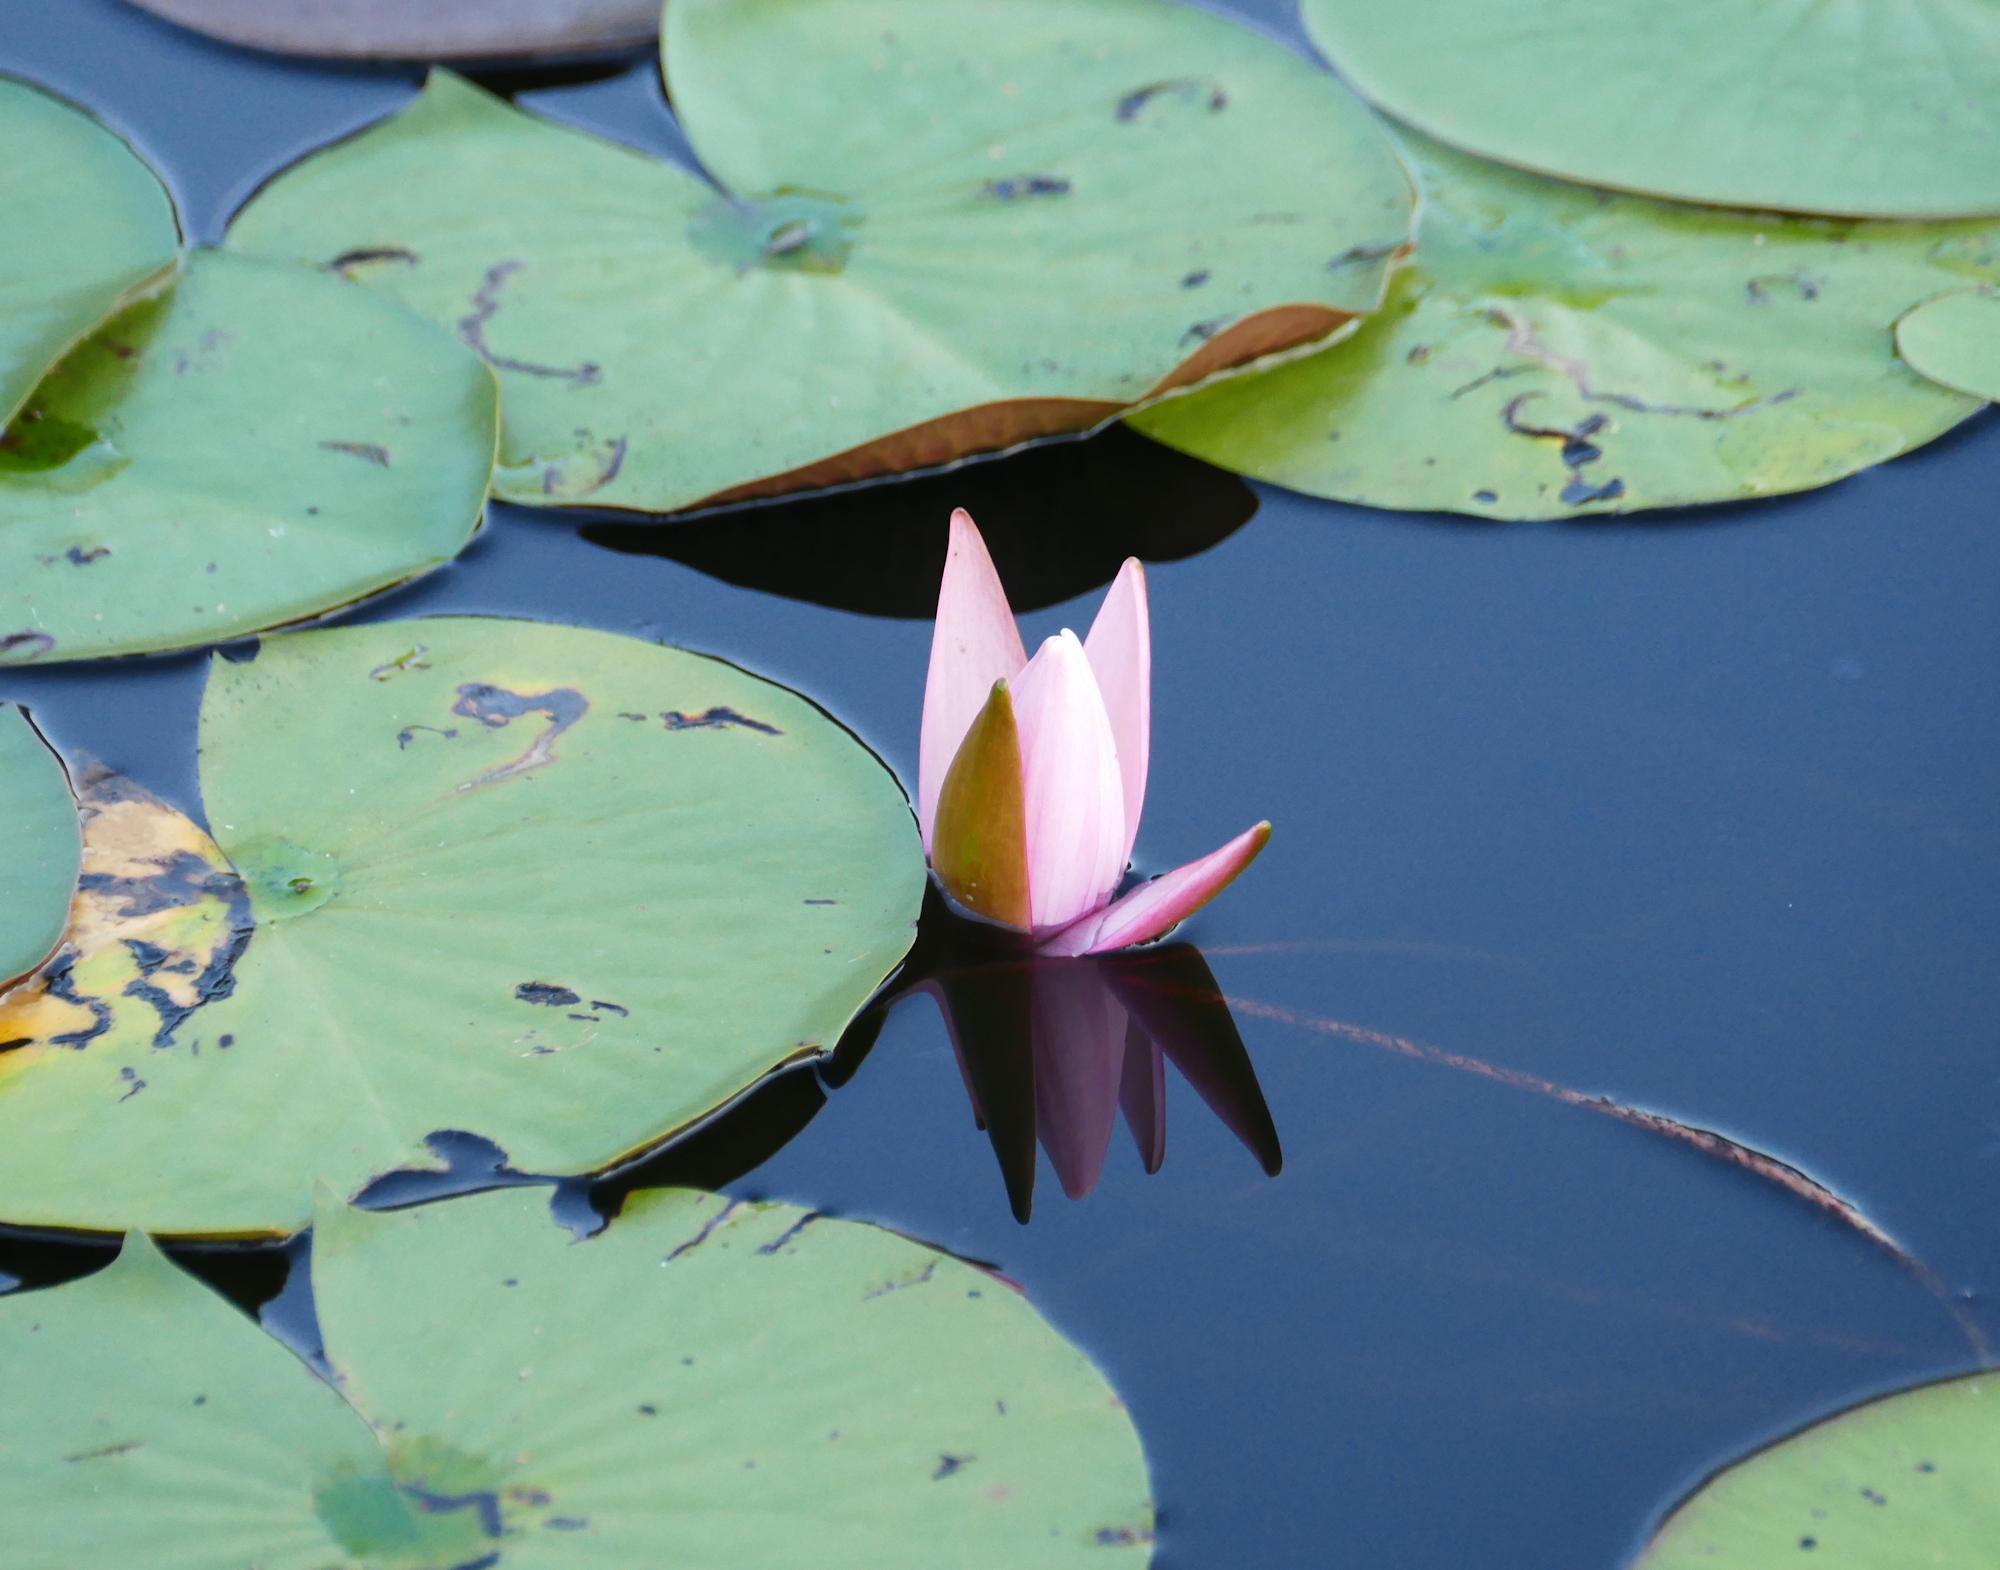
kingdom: Plantae
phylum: Tracheophyta
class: Magnoliopsida
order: Nymphaeales
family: Nymphaeaceae
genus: Nymphaea
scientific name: Nymphaea odorata
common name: Fragrant water-lily
